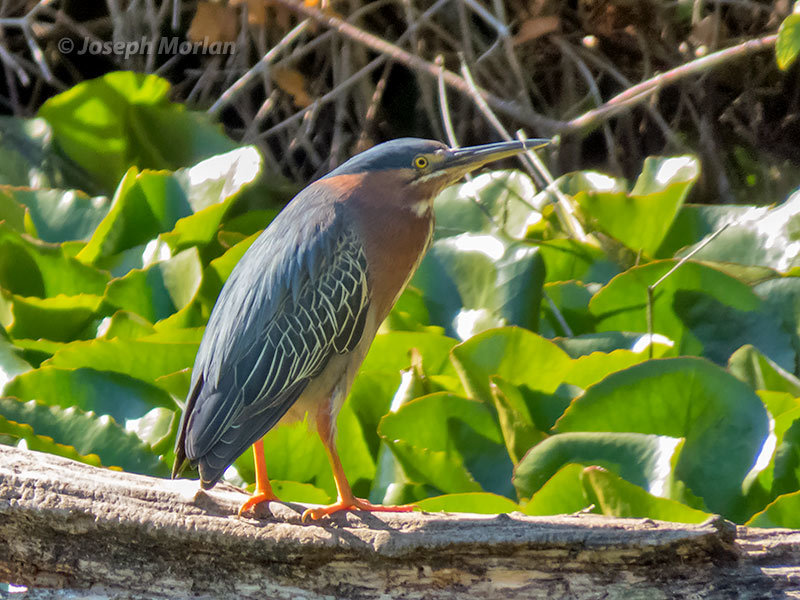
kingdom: Animalia
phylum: Chordata
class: Aves
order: Pelecaniformes
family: Ardeidae
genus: Butorides
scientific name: Butorides virescens
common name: Green heron
